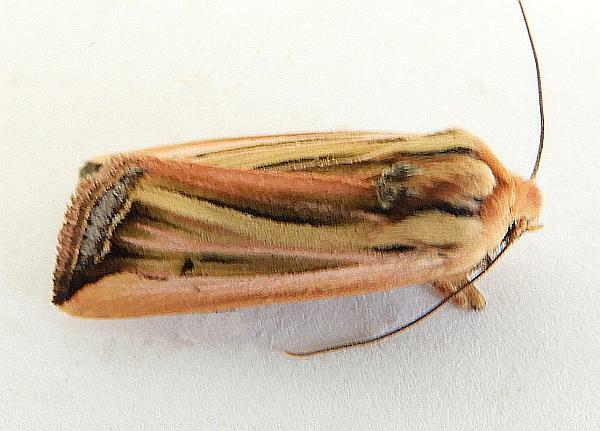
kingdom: Animalia
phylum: Arthropoda
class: Insecta
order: Lepidoptera
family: Noctuidae
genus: Eriopyga
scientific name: Eriopyga ferricola
